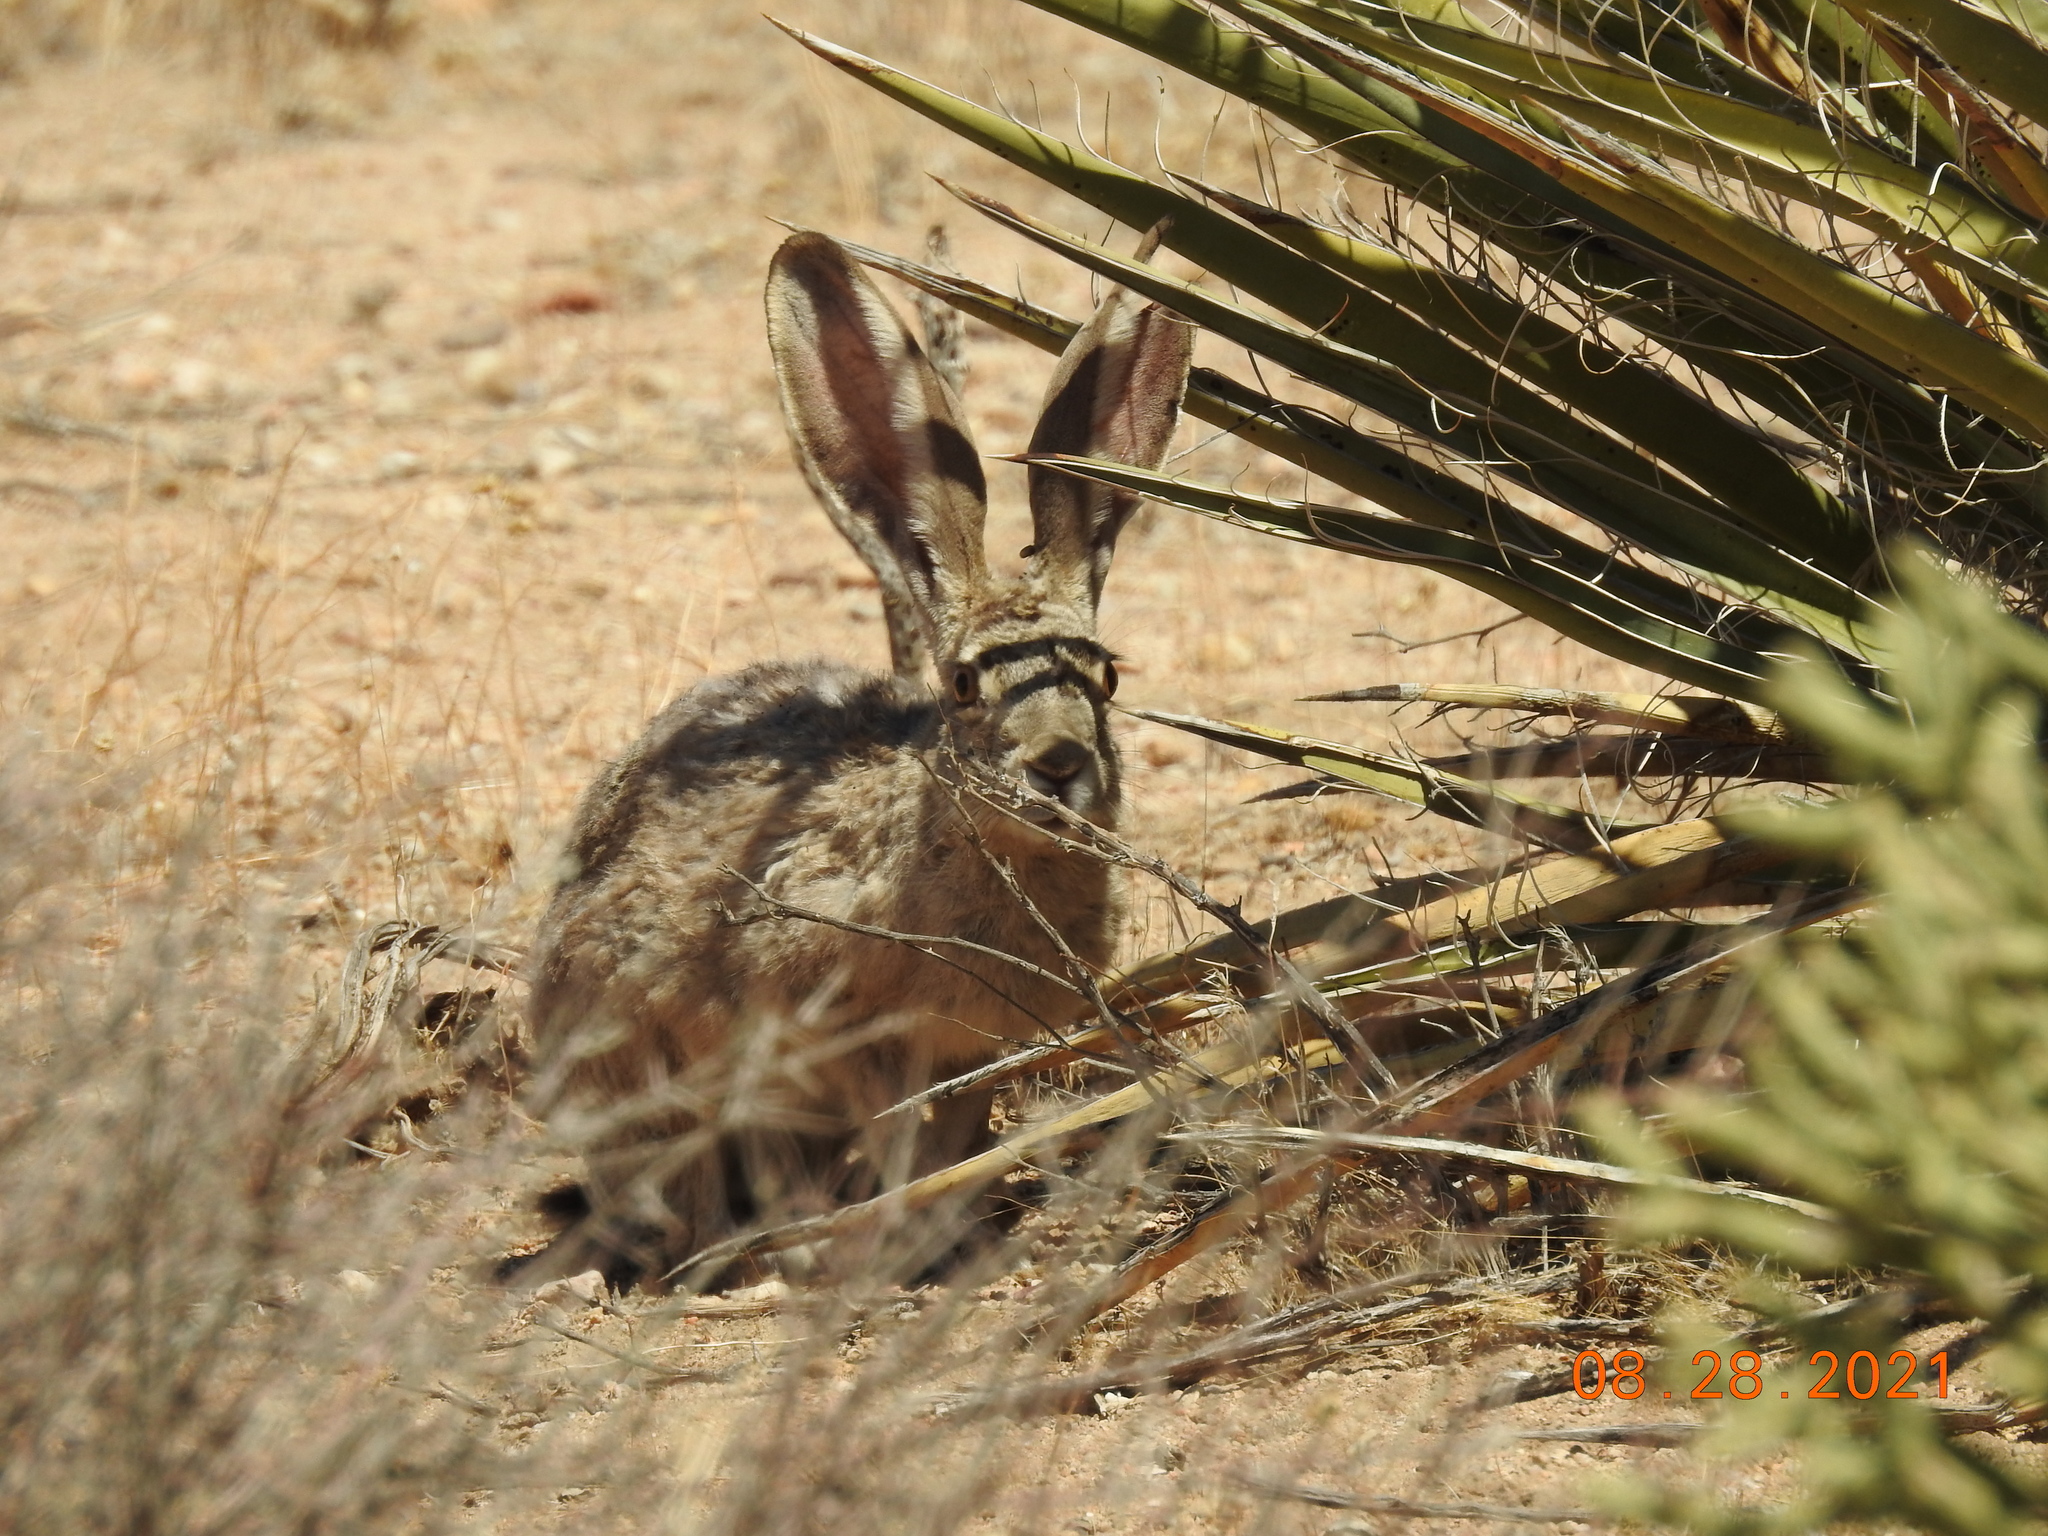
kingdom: Animalia
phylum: Chordata
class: Mammalia
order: Lagomorpha
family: Leporidae
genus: Lepus
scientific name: Lepus californicus
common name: Black-tailed jackrabbit
